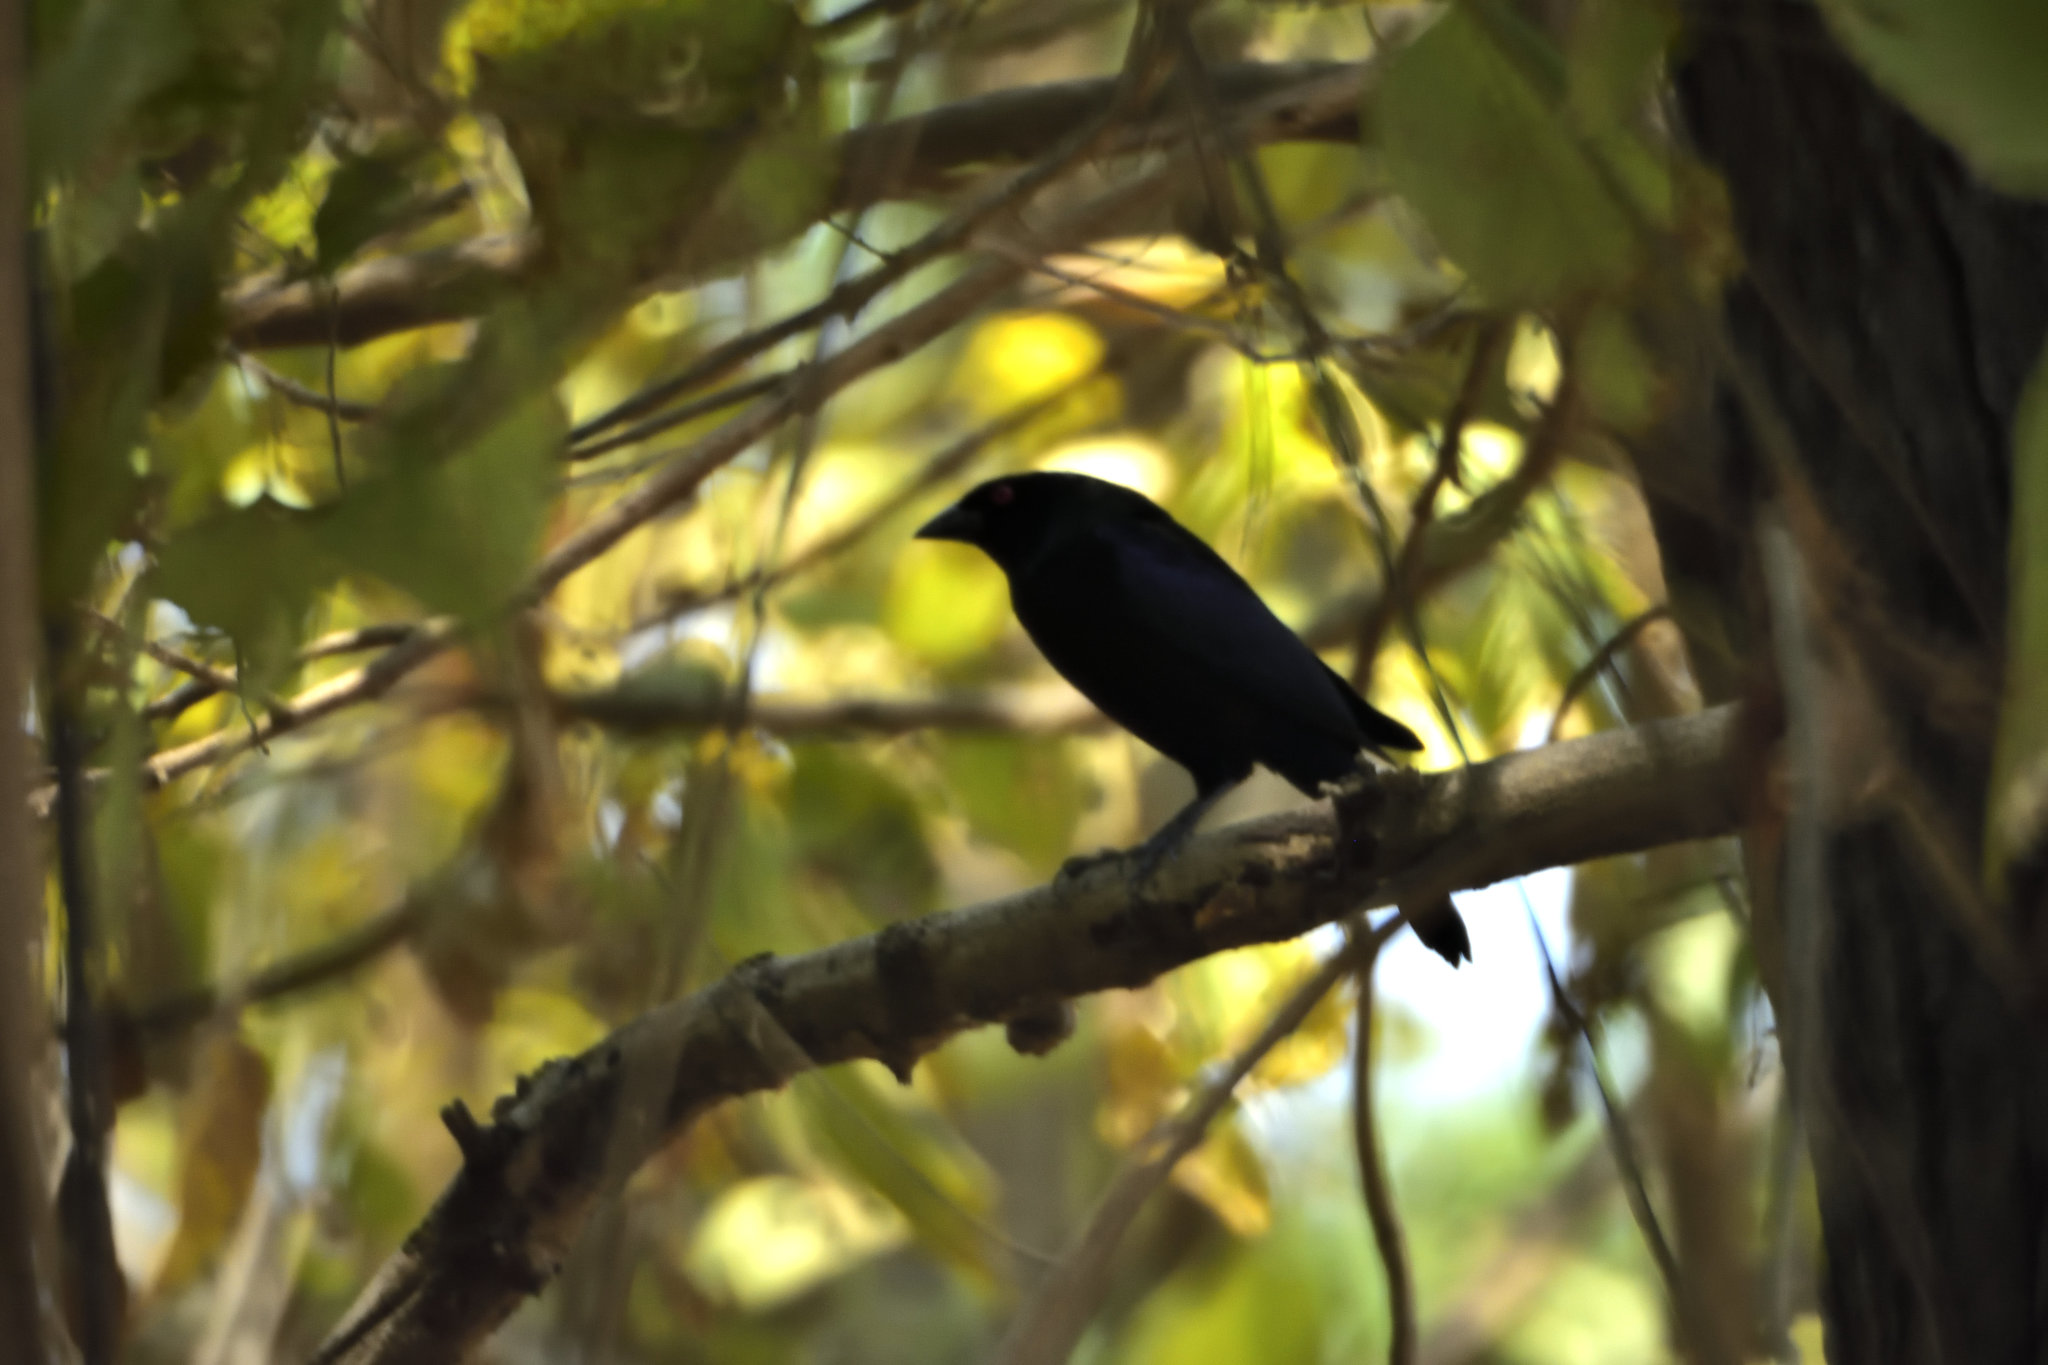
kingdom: Animalia
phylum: Chordata
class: Aves
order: Passeriformes
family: Icteridae
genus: Molothrus
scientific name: Molothrus aeneus
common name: Bronzed cowbird
